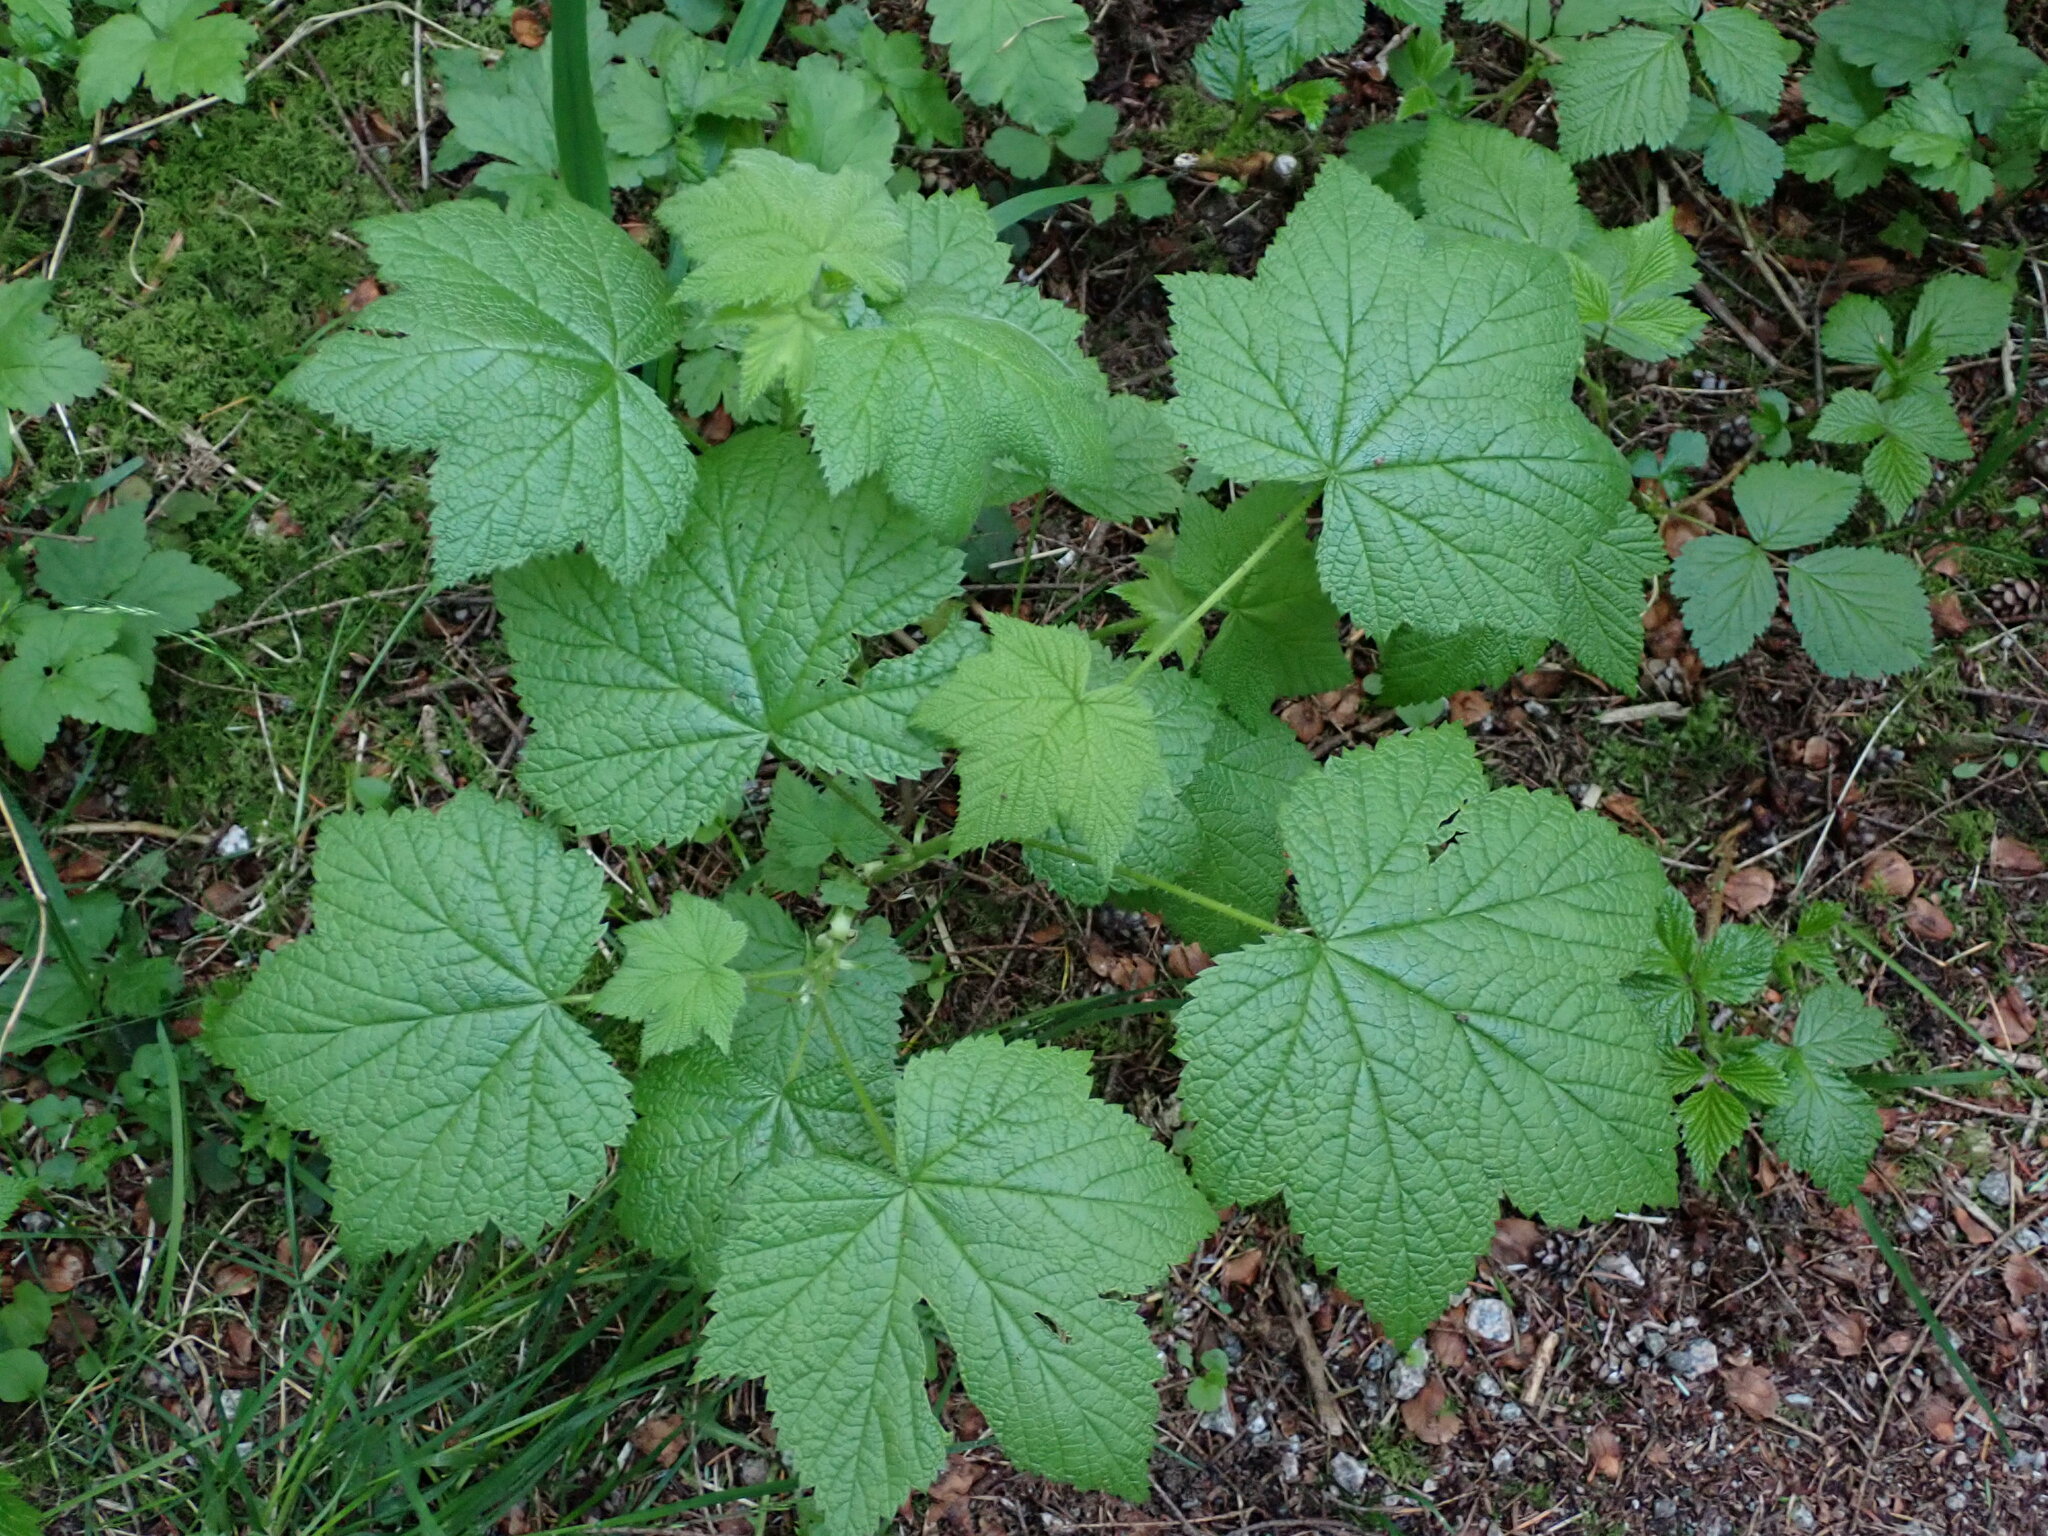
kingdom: Plantae
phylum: Tracheophyta
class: Magnoliopsida
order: Rosales
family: Rosaceae
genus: Rubus
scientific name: Rubus parviflorus
